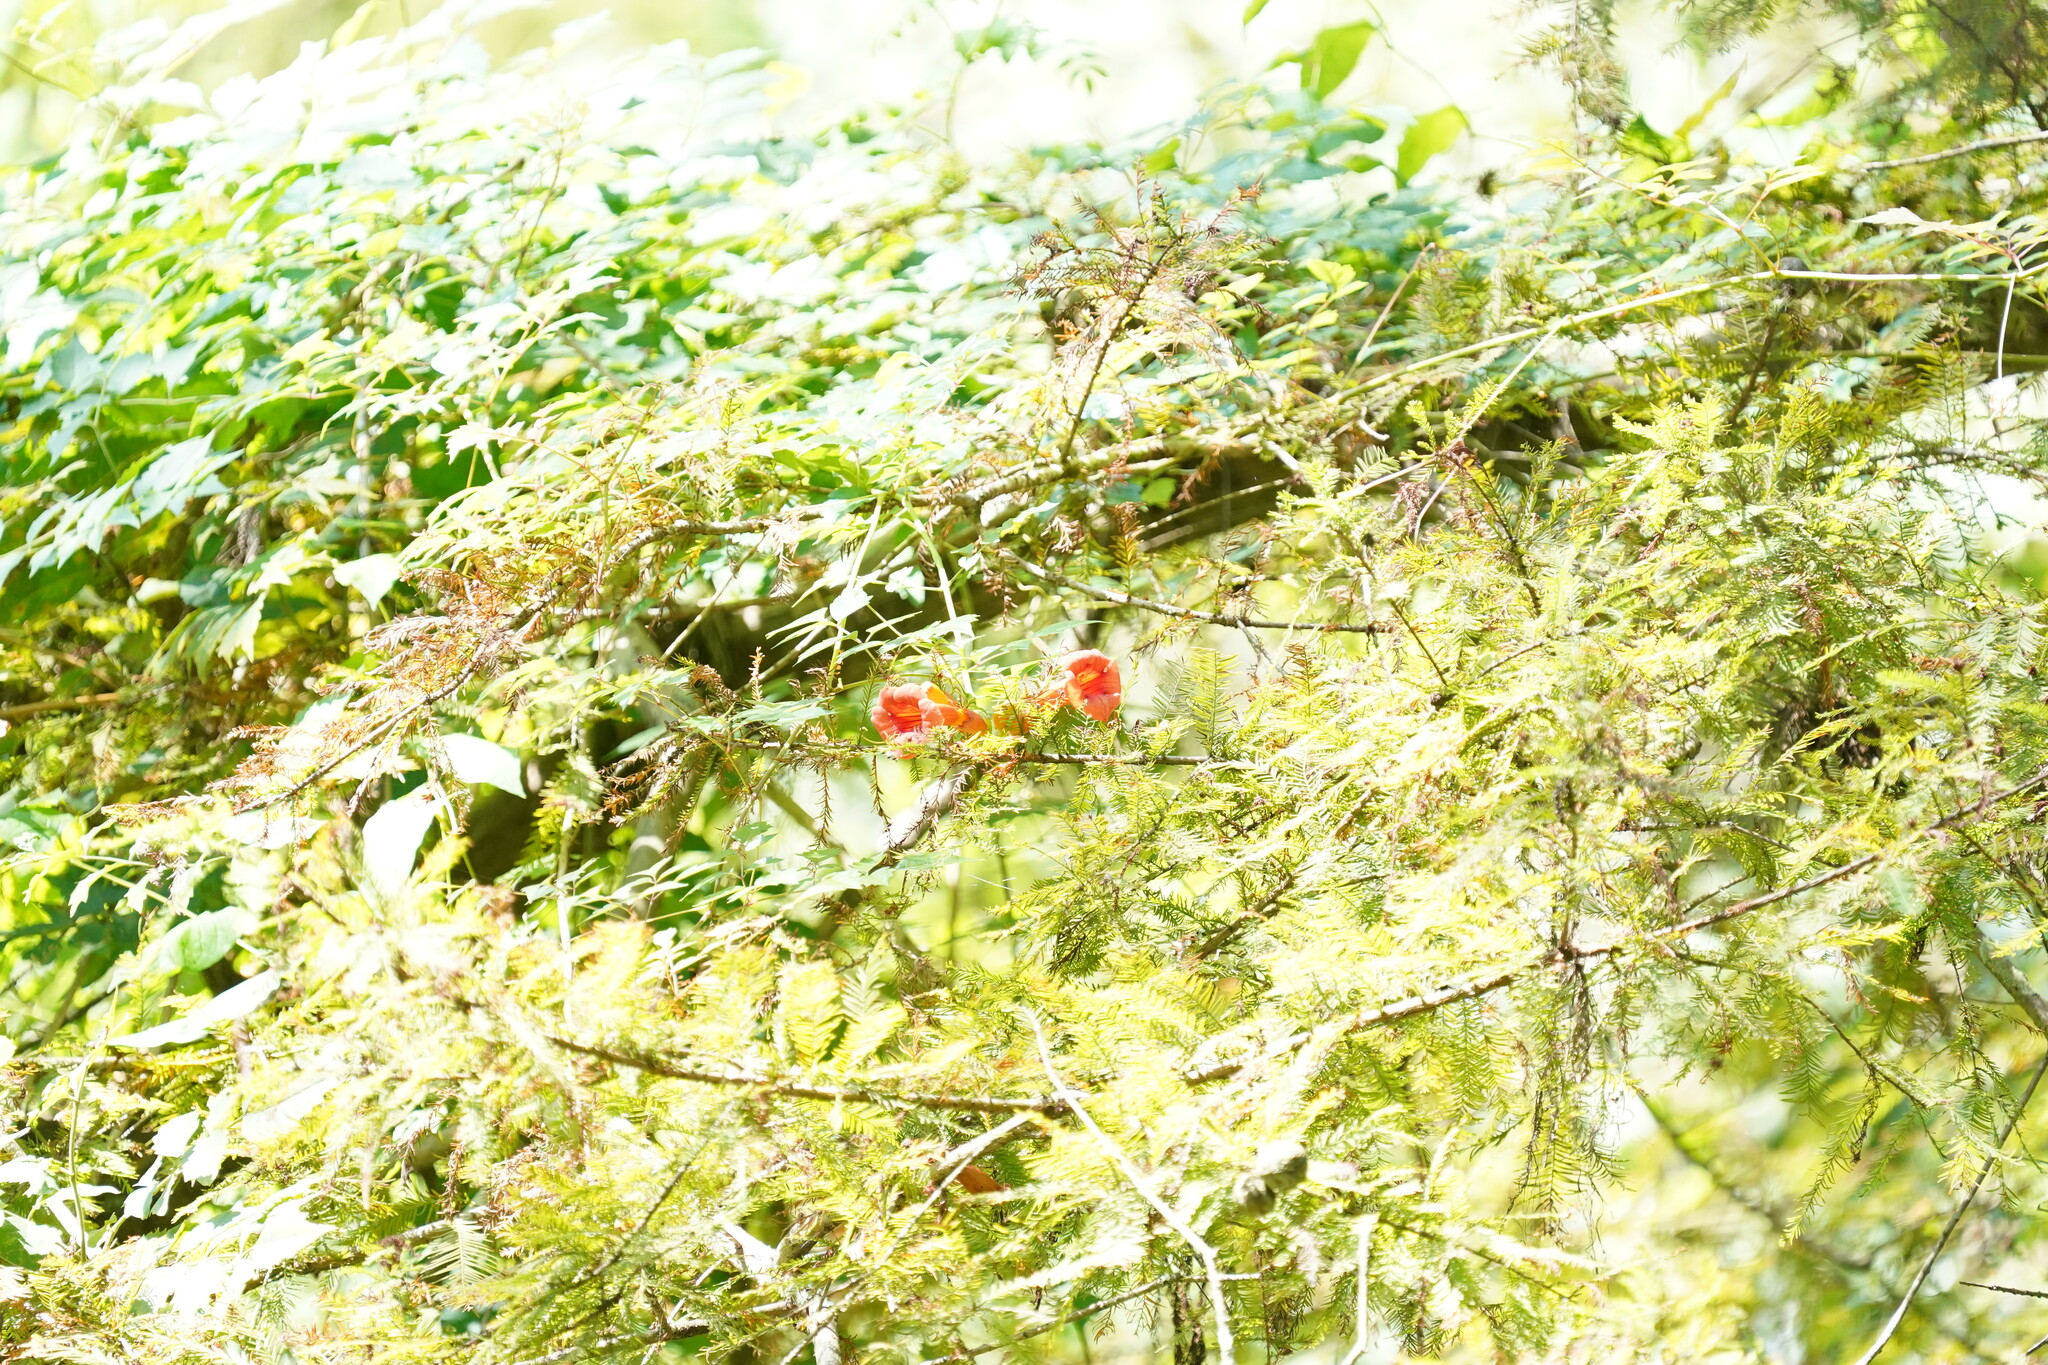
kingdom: Plantae
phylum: Tracheophyta
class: Magnoliopsida
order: Lamiales
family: Bignoniaceae
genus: Campsis
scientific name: Campsis radicans
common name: Trumpet-creeper
